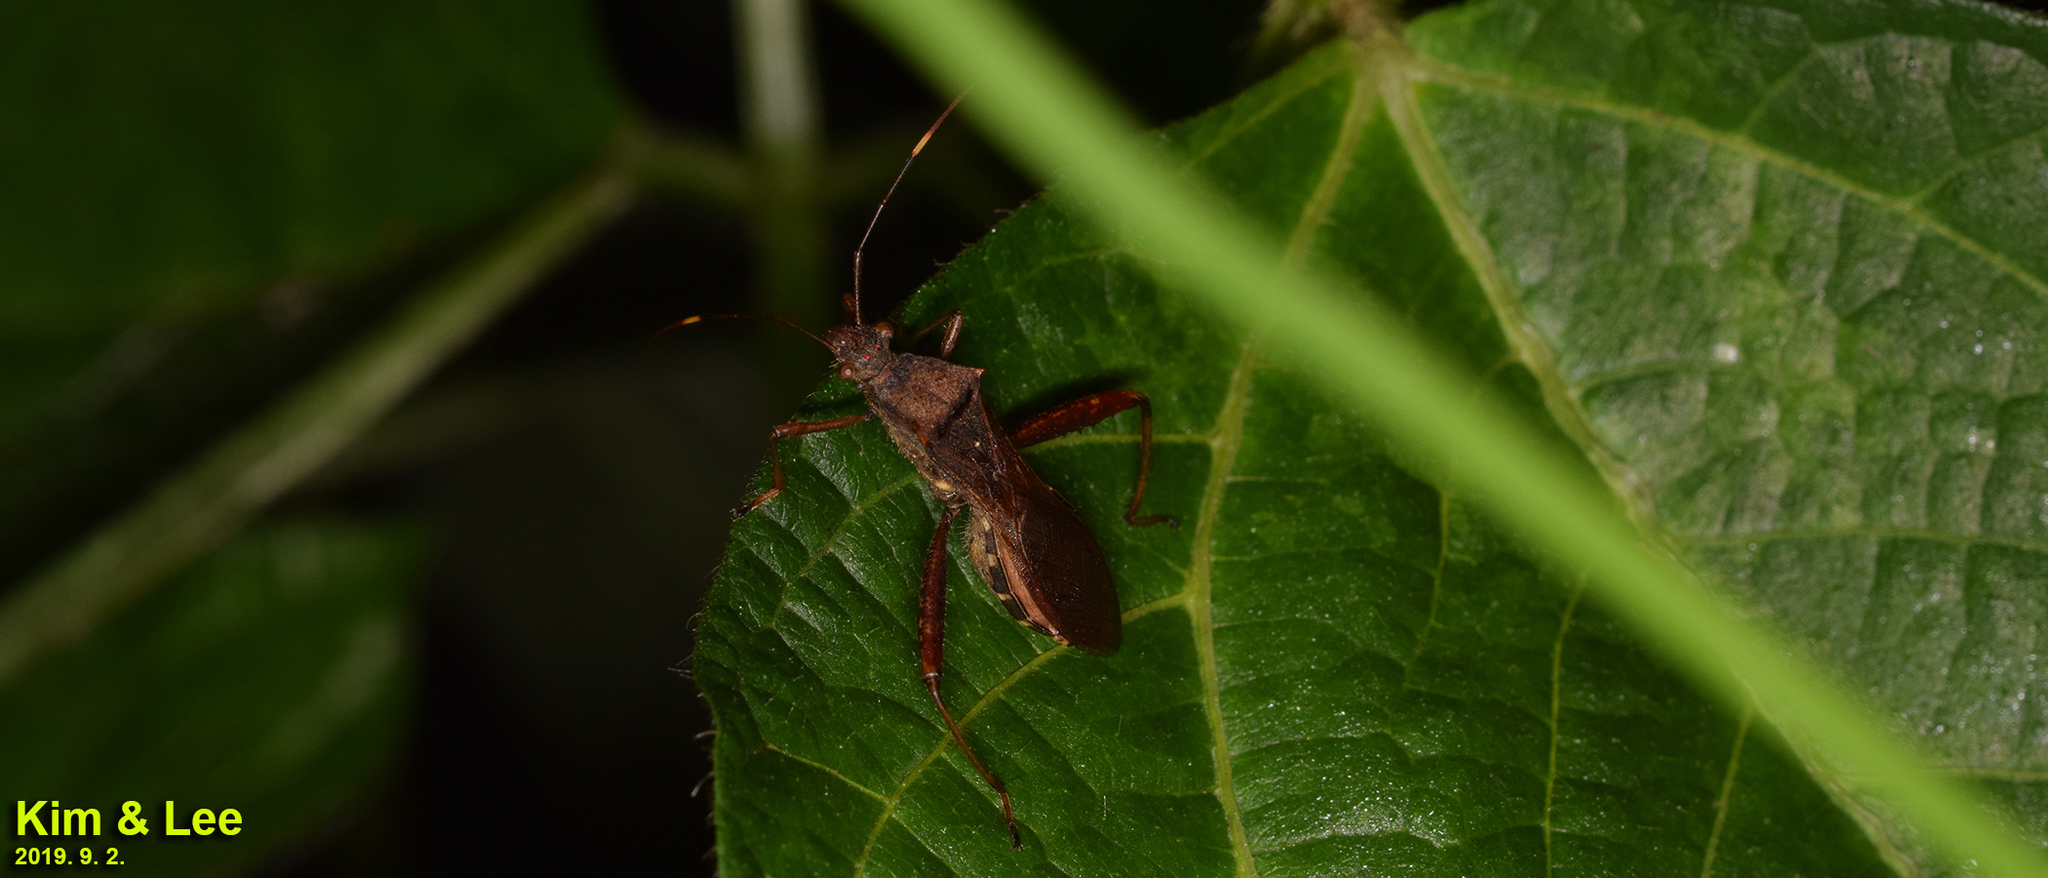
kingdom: Animalia
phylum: Arthropoda
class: Insecta
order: Hemiptera
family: Alydidae
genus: Riptortus
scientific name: Riptortus pedestris
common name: Bean bug
